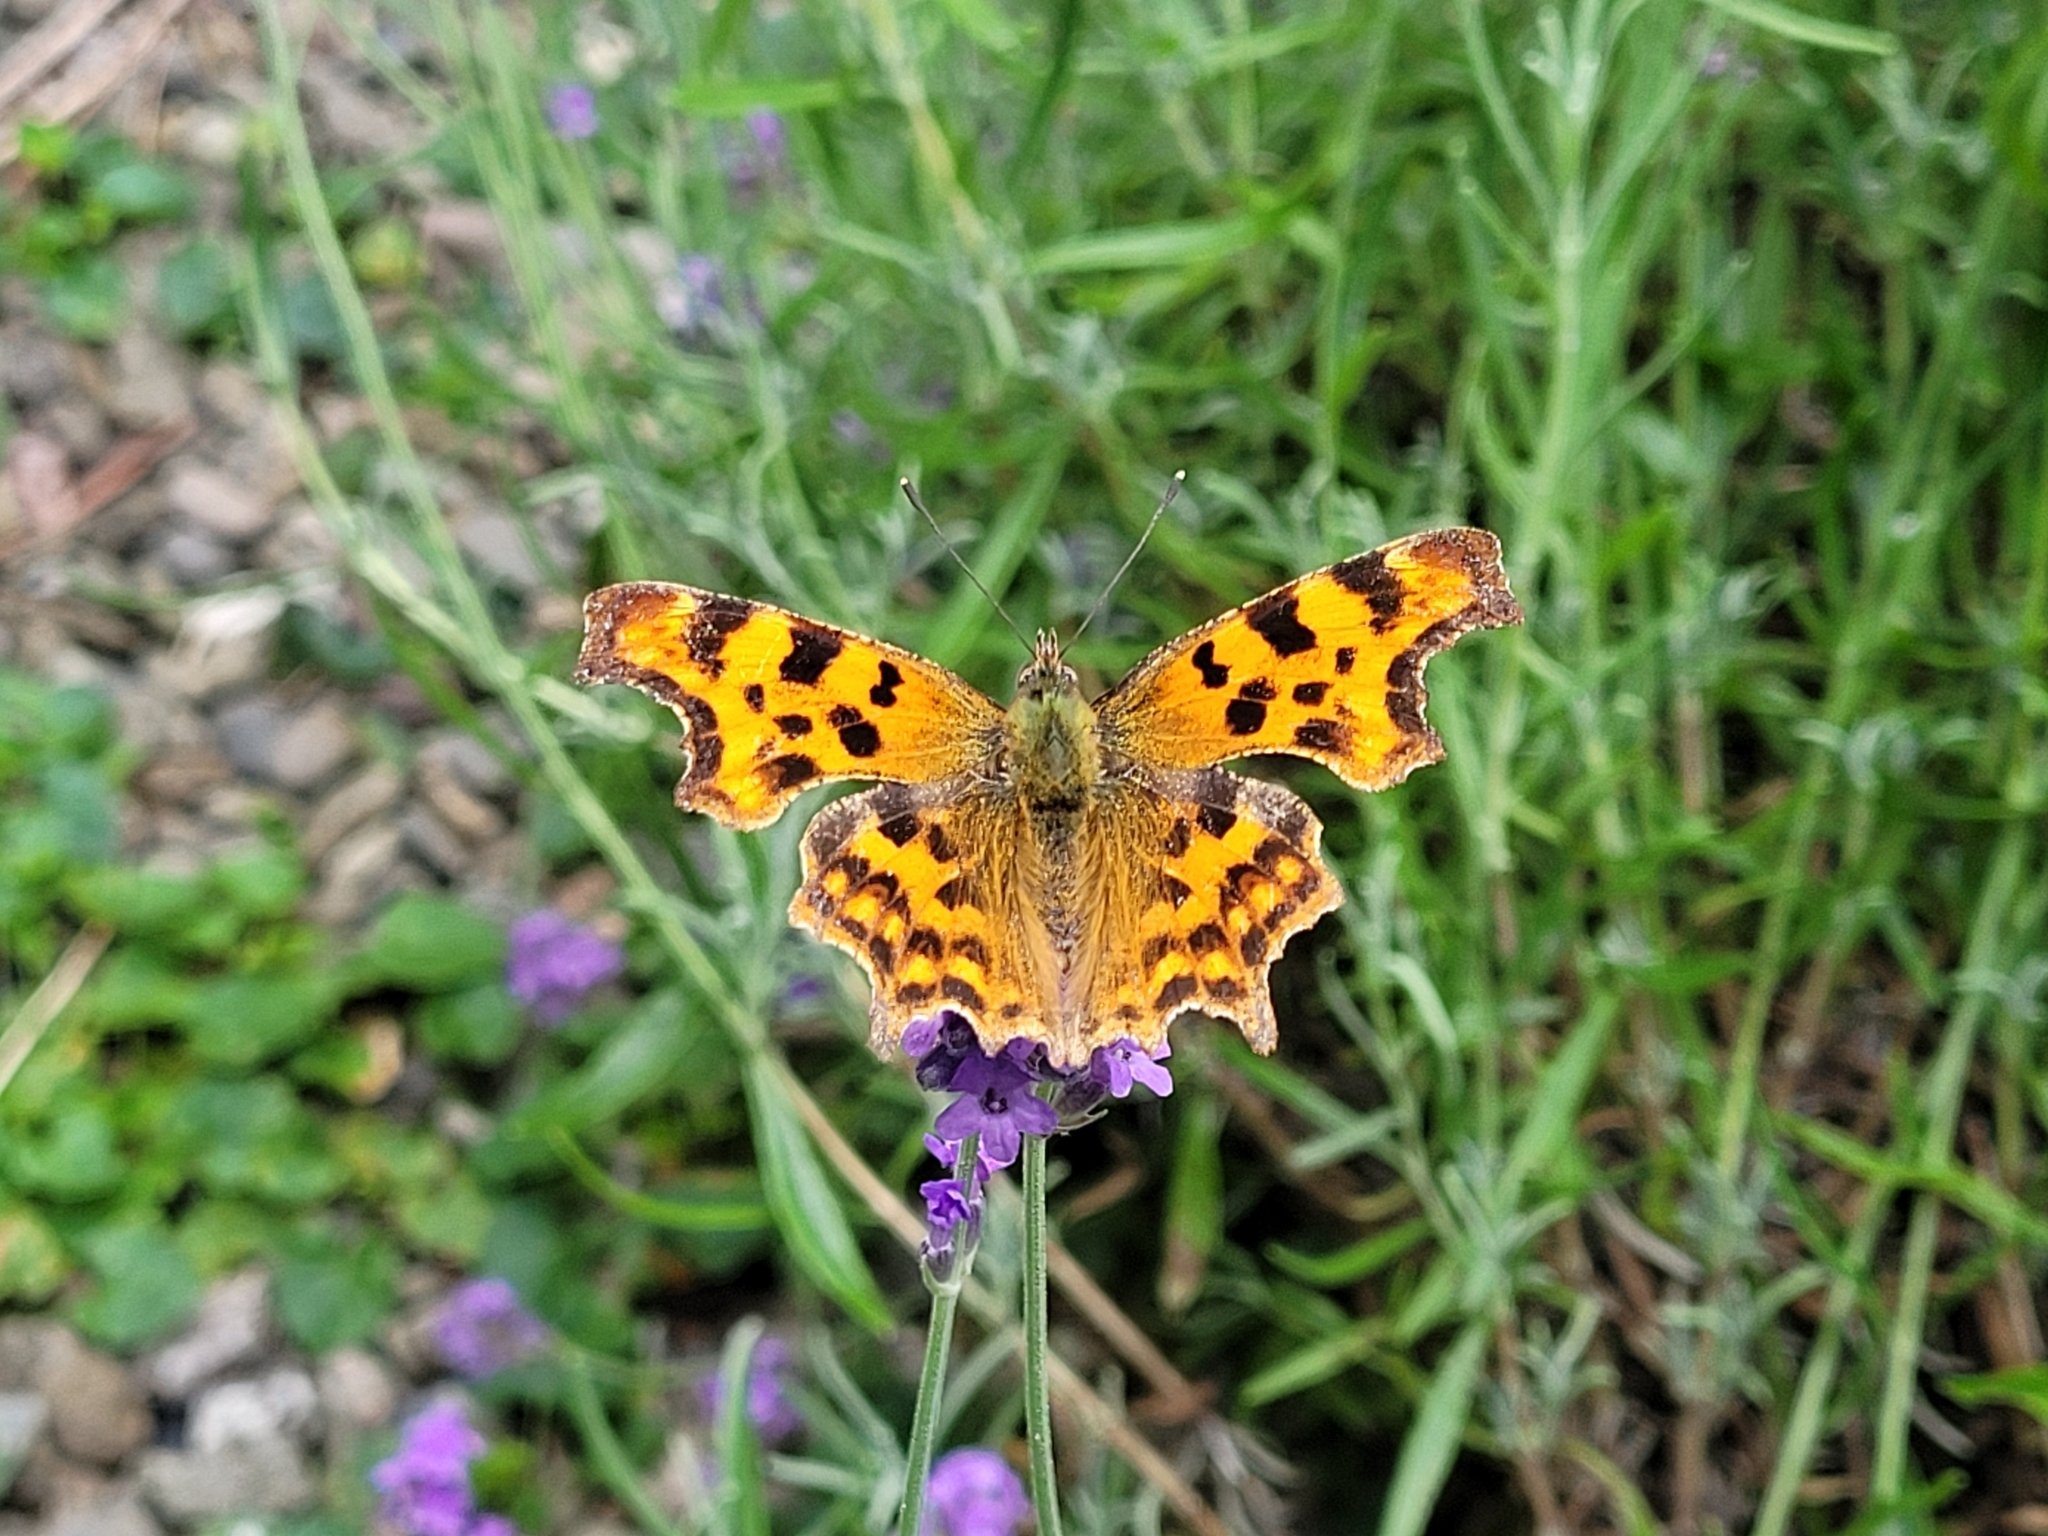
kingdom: Animalia
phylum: Arthropoda
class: Insecta
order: Lepidoptera
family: Nymphalidae
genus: Polygonia
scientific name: Polygonia c-album
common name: Comma
